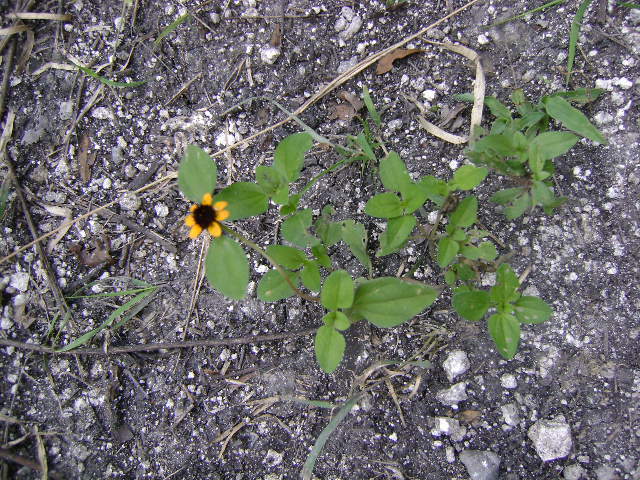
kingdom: Plantae
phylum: Tracheophyta
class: Magnoliopsida
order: Asterales
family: Asteraceae
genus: Sanvitalia
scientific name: Sanvitalia procumbens
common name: Mexican creeping zinnia
